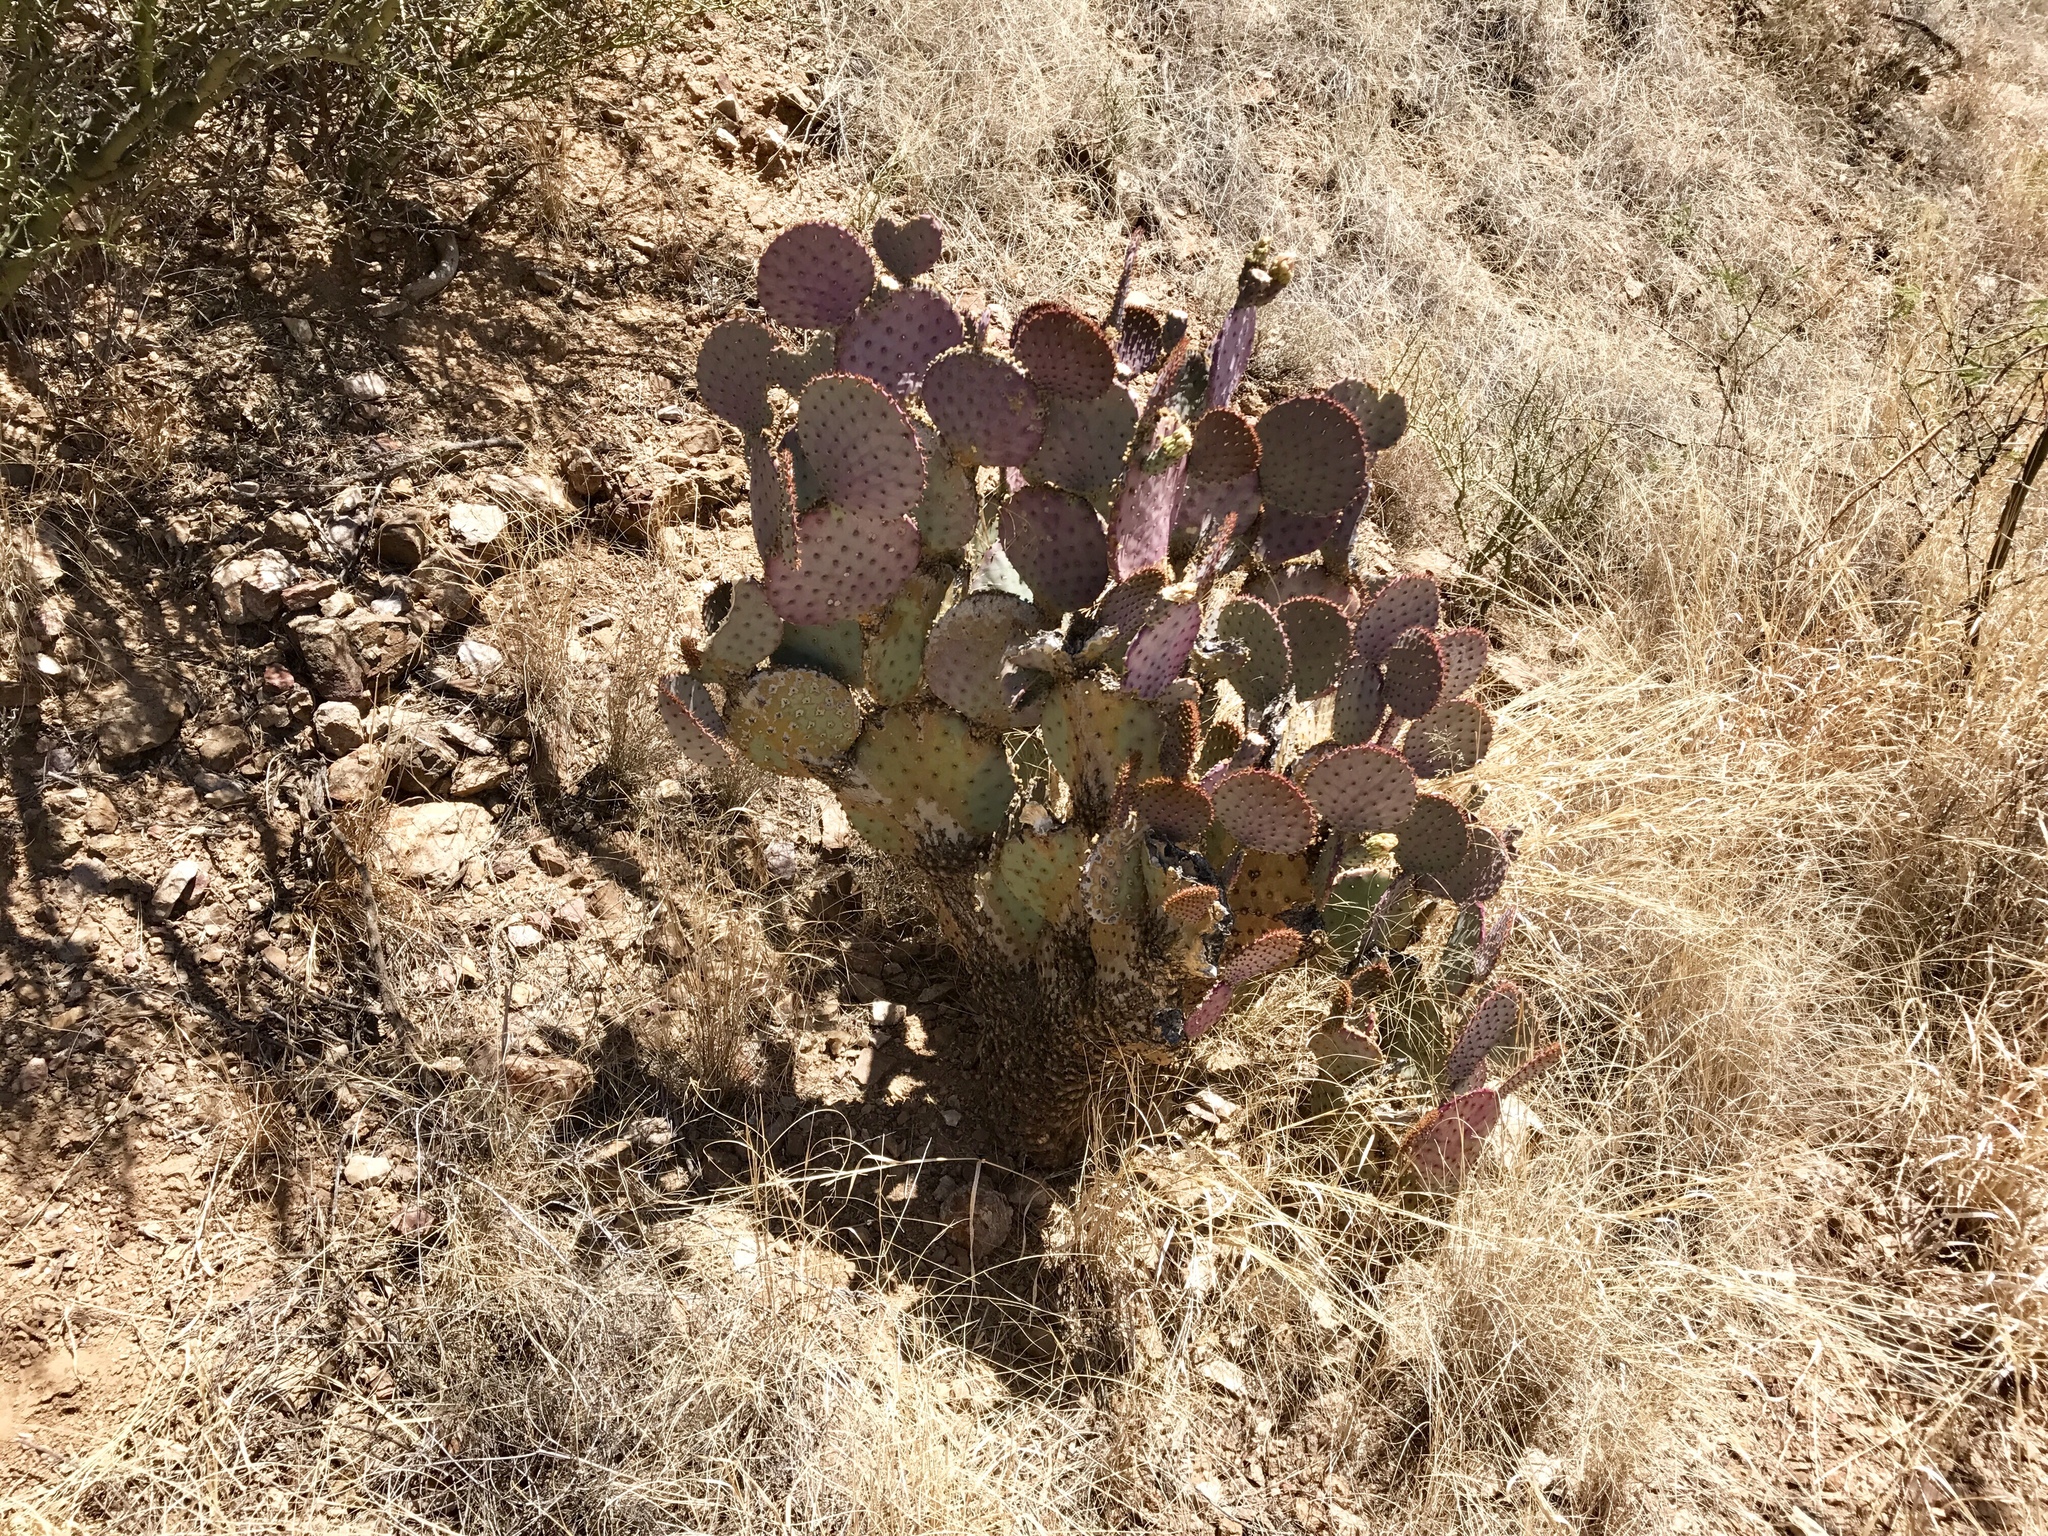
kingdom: Plantae
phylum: Tracheophyta
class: Magnoliopsida
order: Caryophyllales
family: Cactaceae
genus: Opuntia
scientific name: Opuntia gosseliniana
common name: Violet prickly-pear
